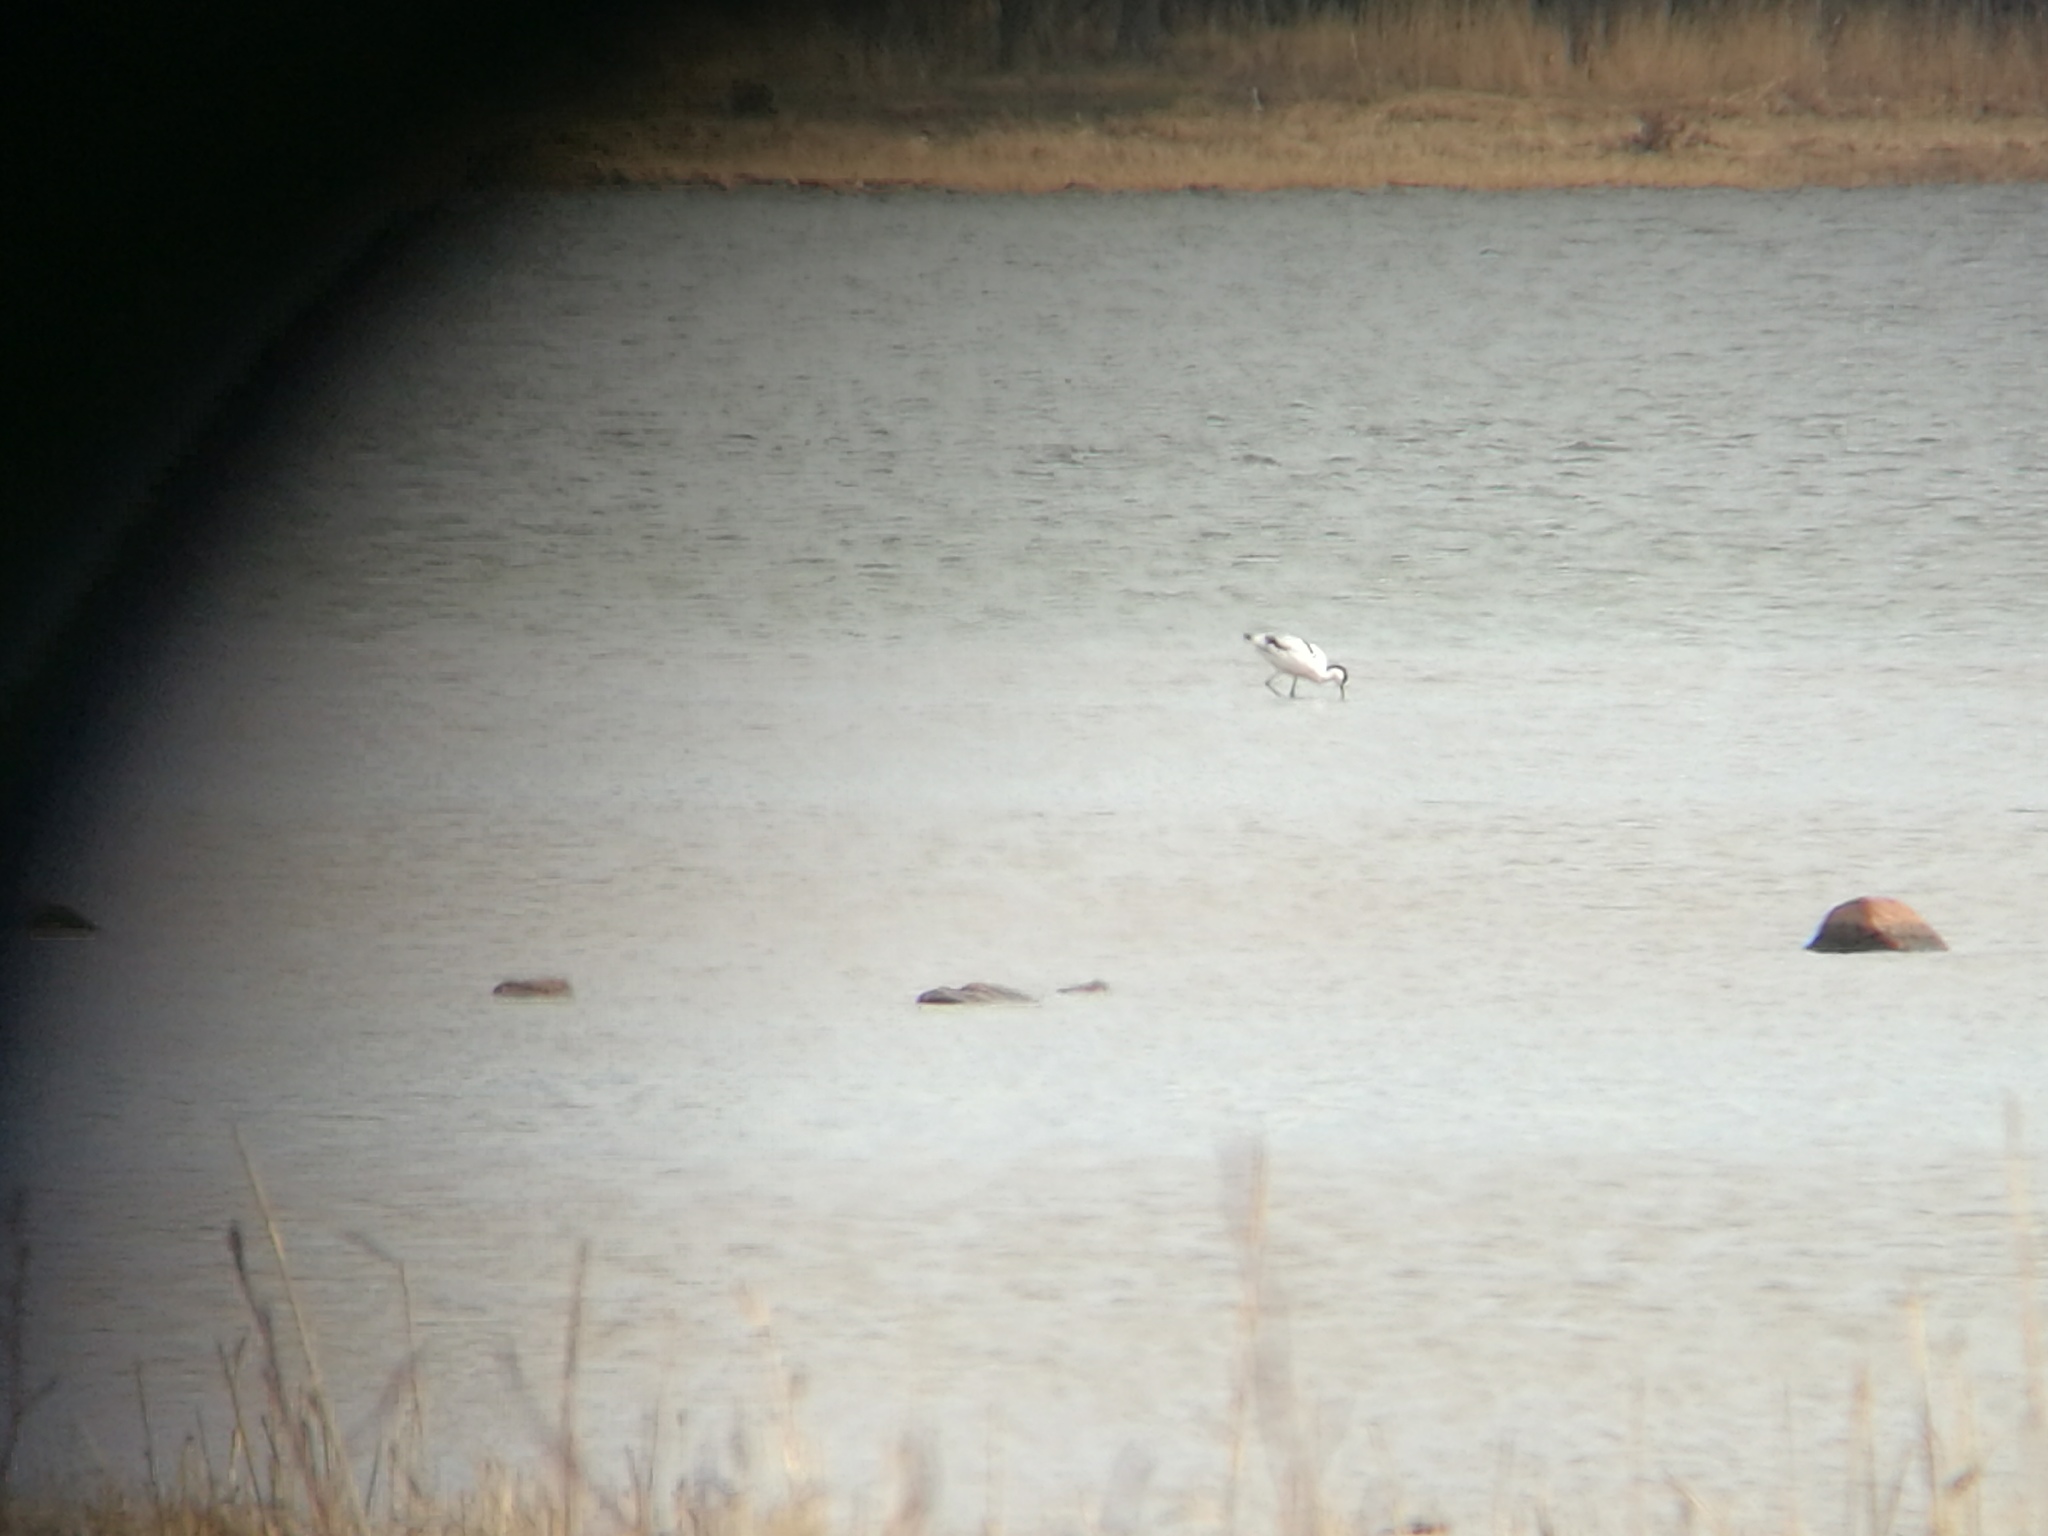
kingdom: Animalia
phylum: Chordata
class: Aves
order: Charadriiformes
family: Recurvirostridae
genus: Recurvirostra
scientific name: Recurvirostra avosetta
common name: Pied avocet
